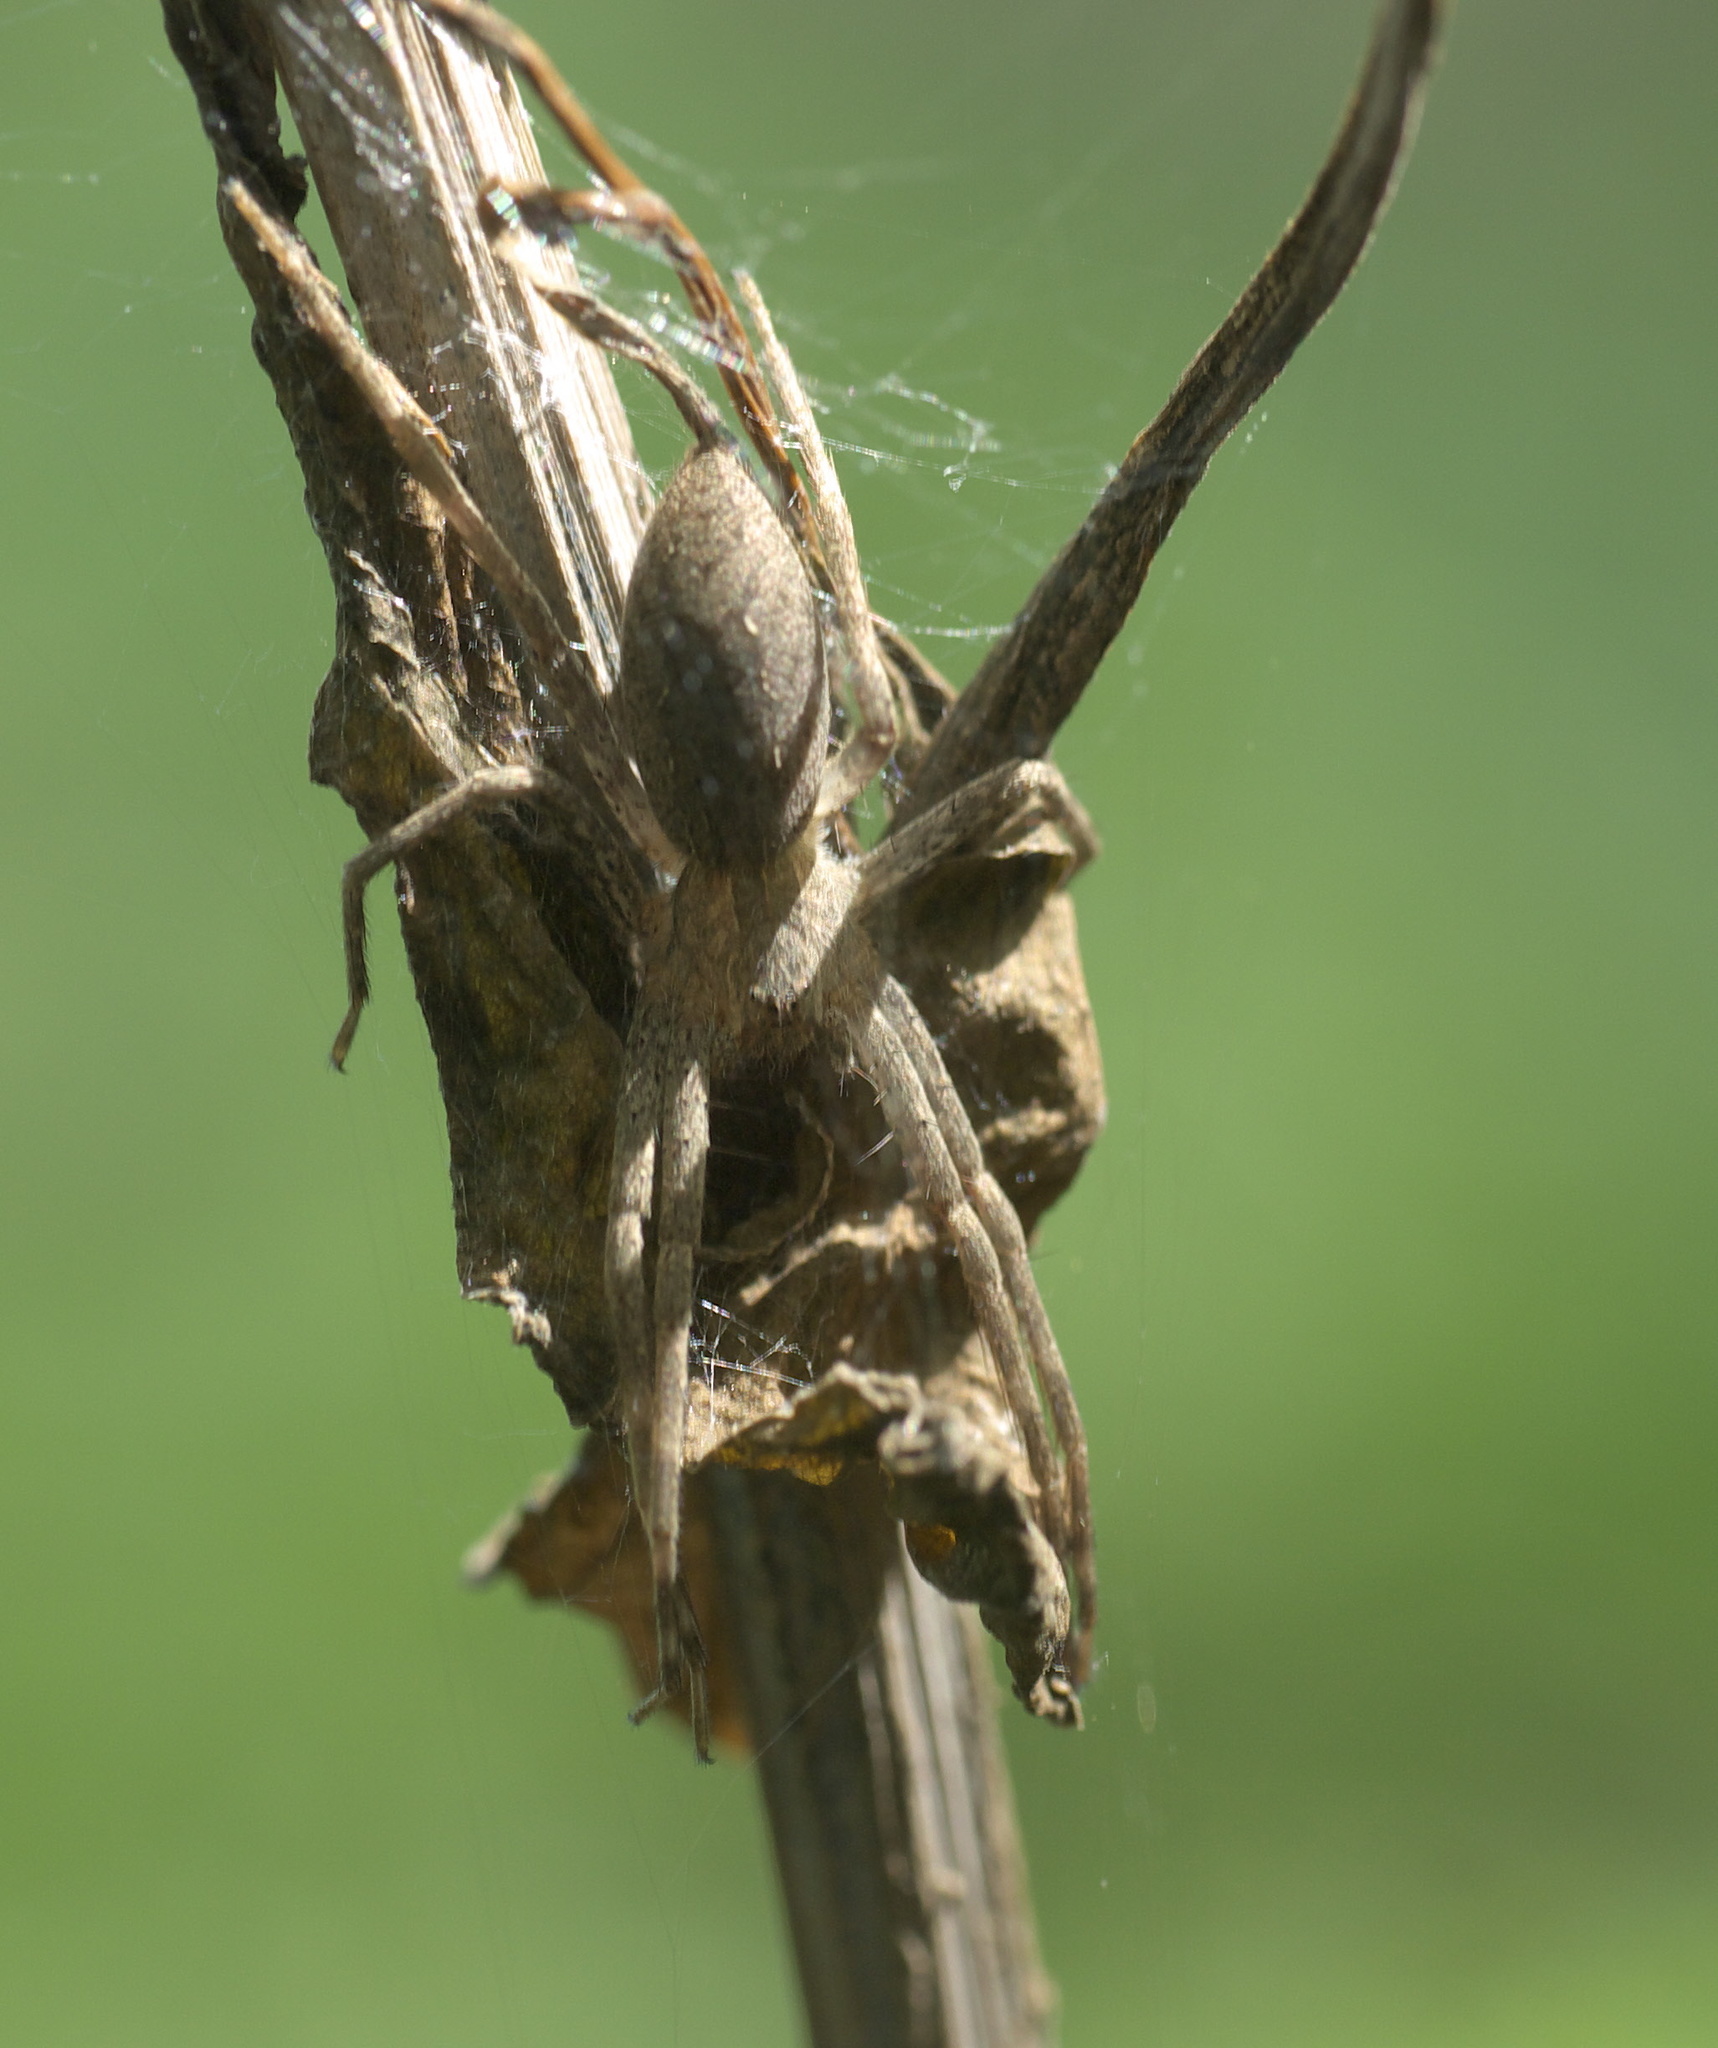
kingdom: Animalia
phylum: Arthropoda
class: Arachnida
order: Araneae
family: Pisauridae
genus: Pisaurina
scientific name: Pisaurina mira
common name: American nursery web spider
